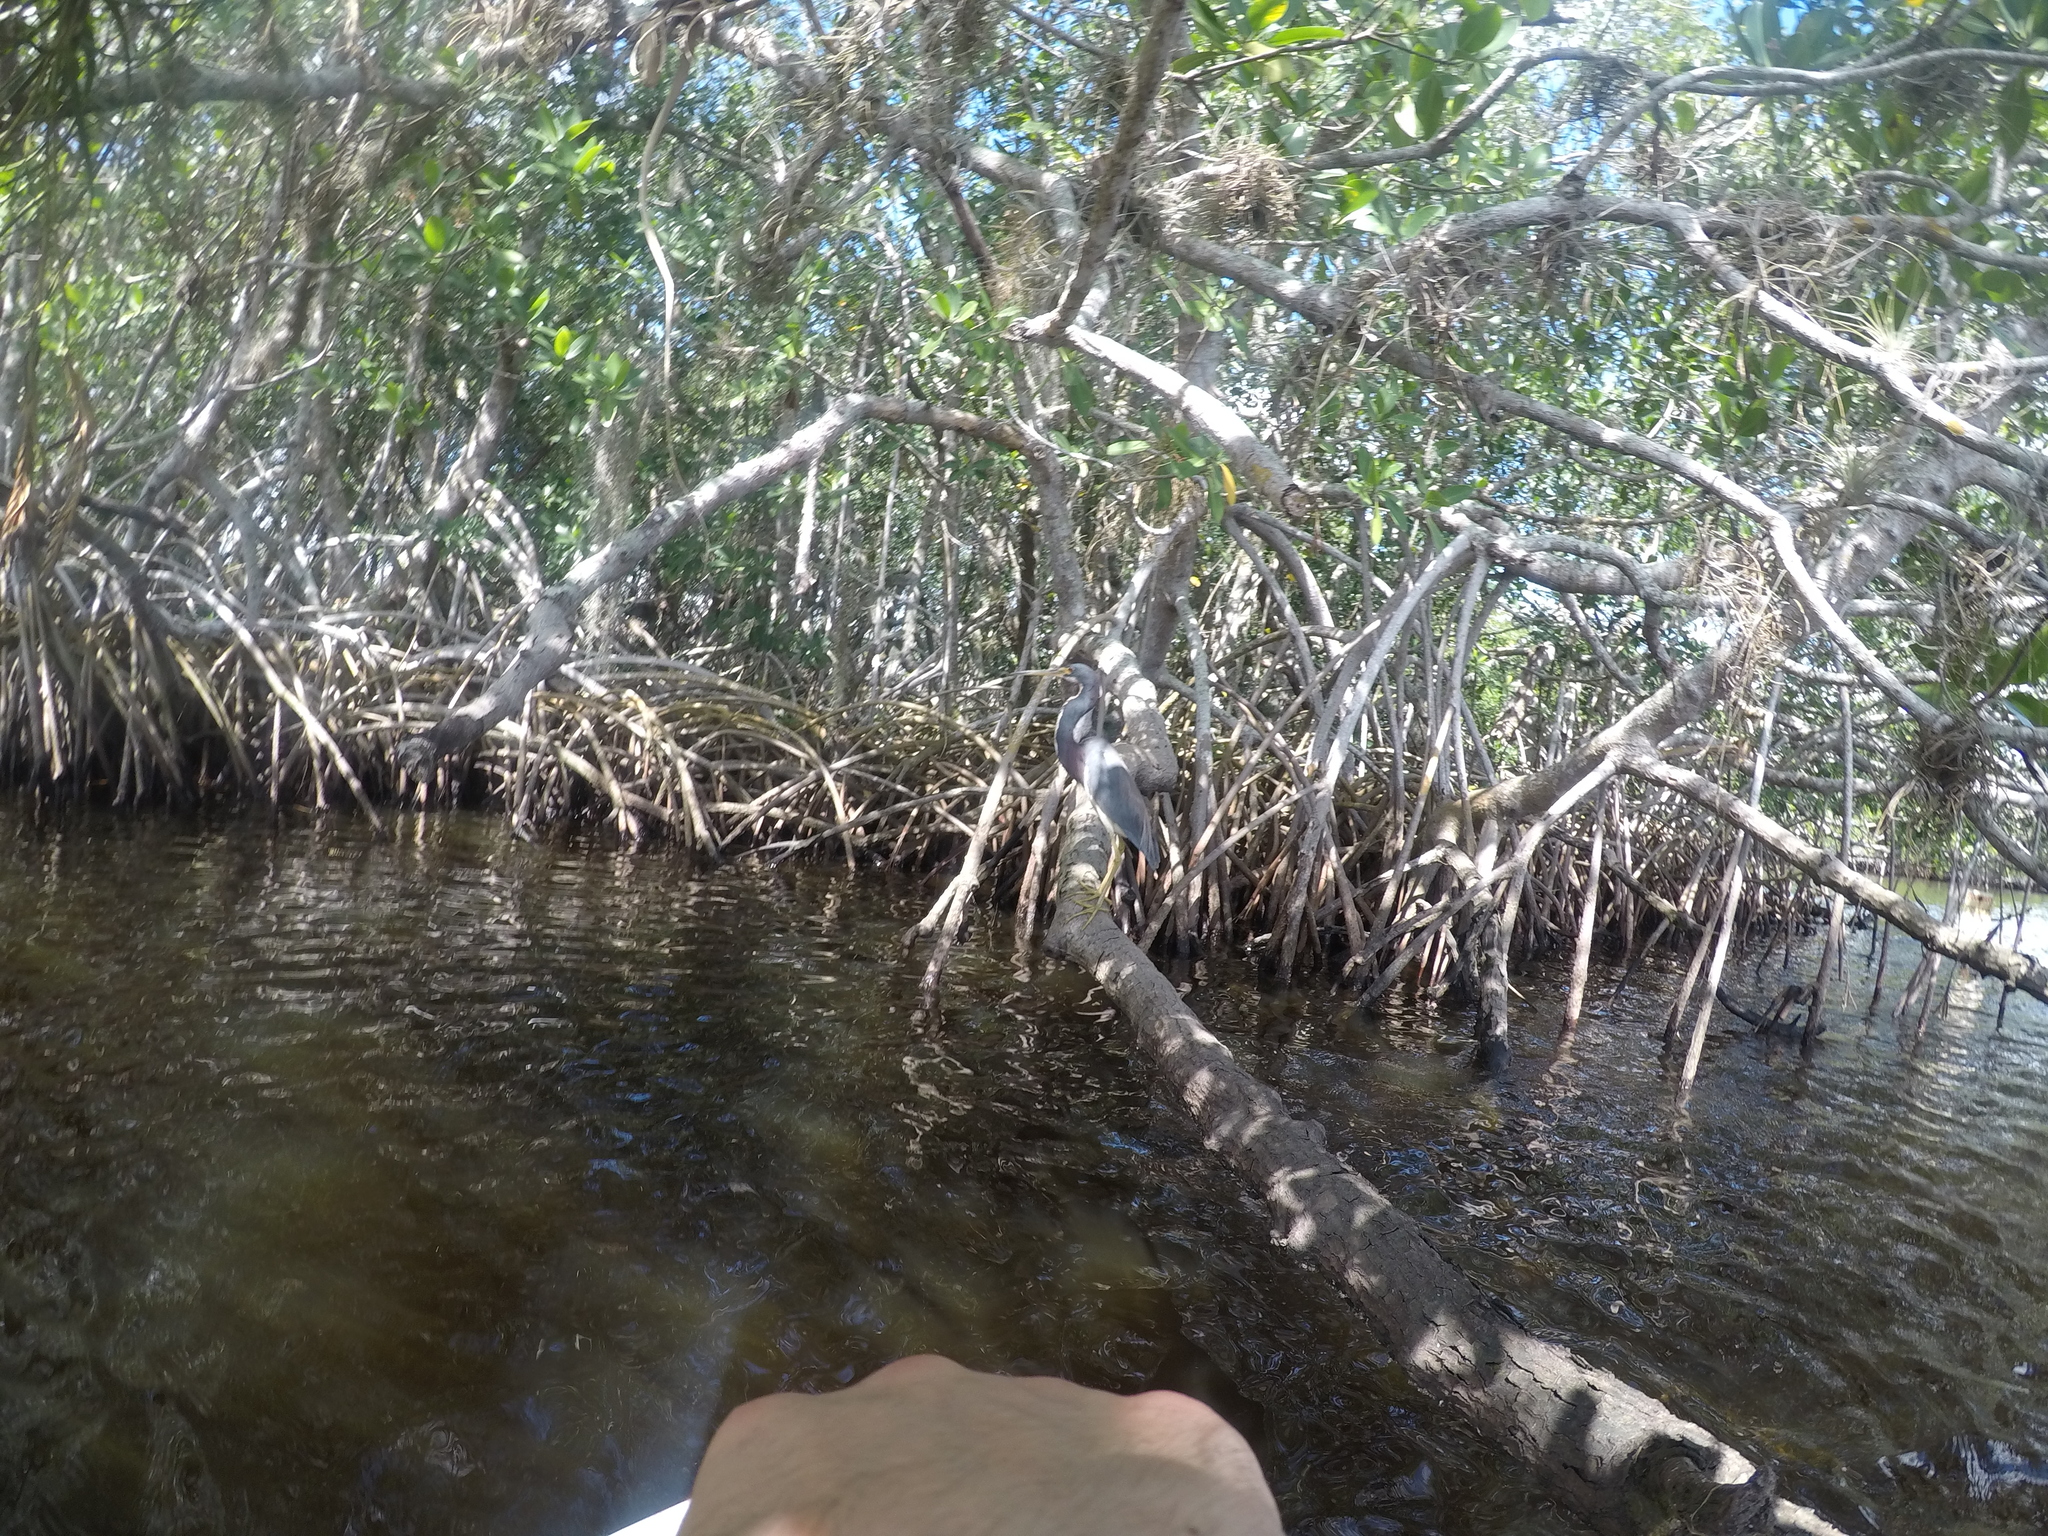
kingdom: Animalia
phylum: Chordata
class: Aves
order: Pelecaniformes
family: Ardeidae
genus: Egretta
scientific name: Egretta tricolor
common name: Tricolored heron
